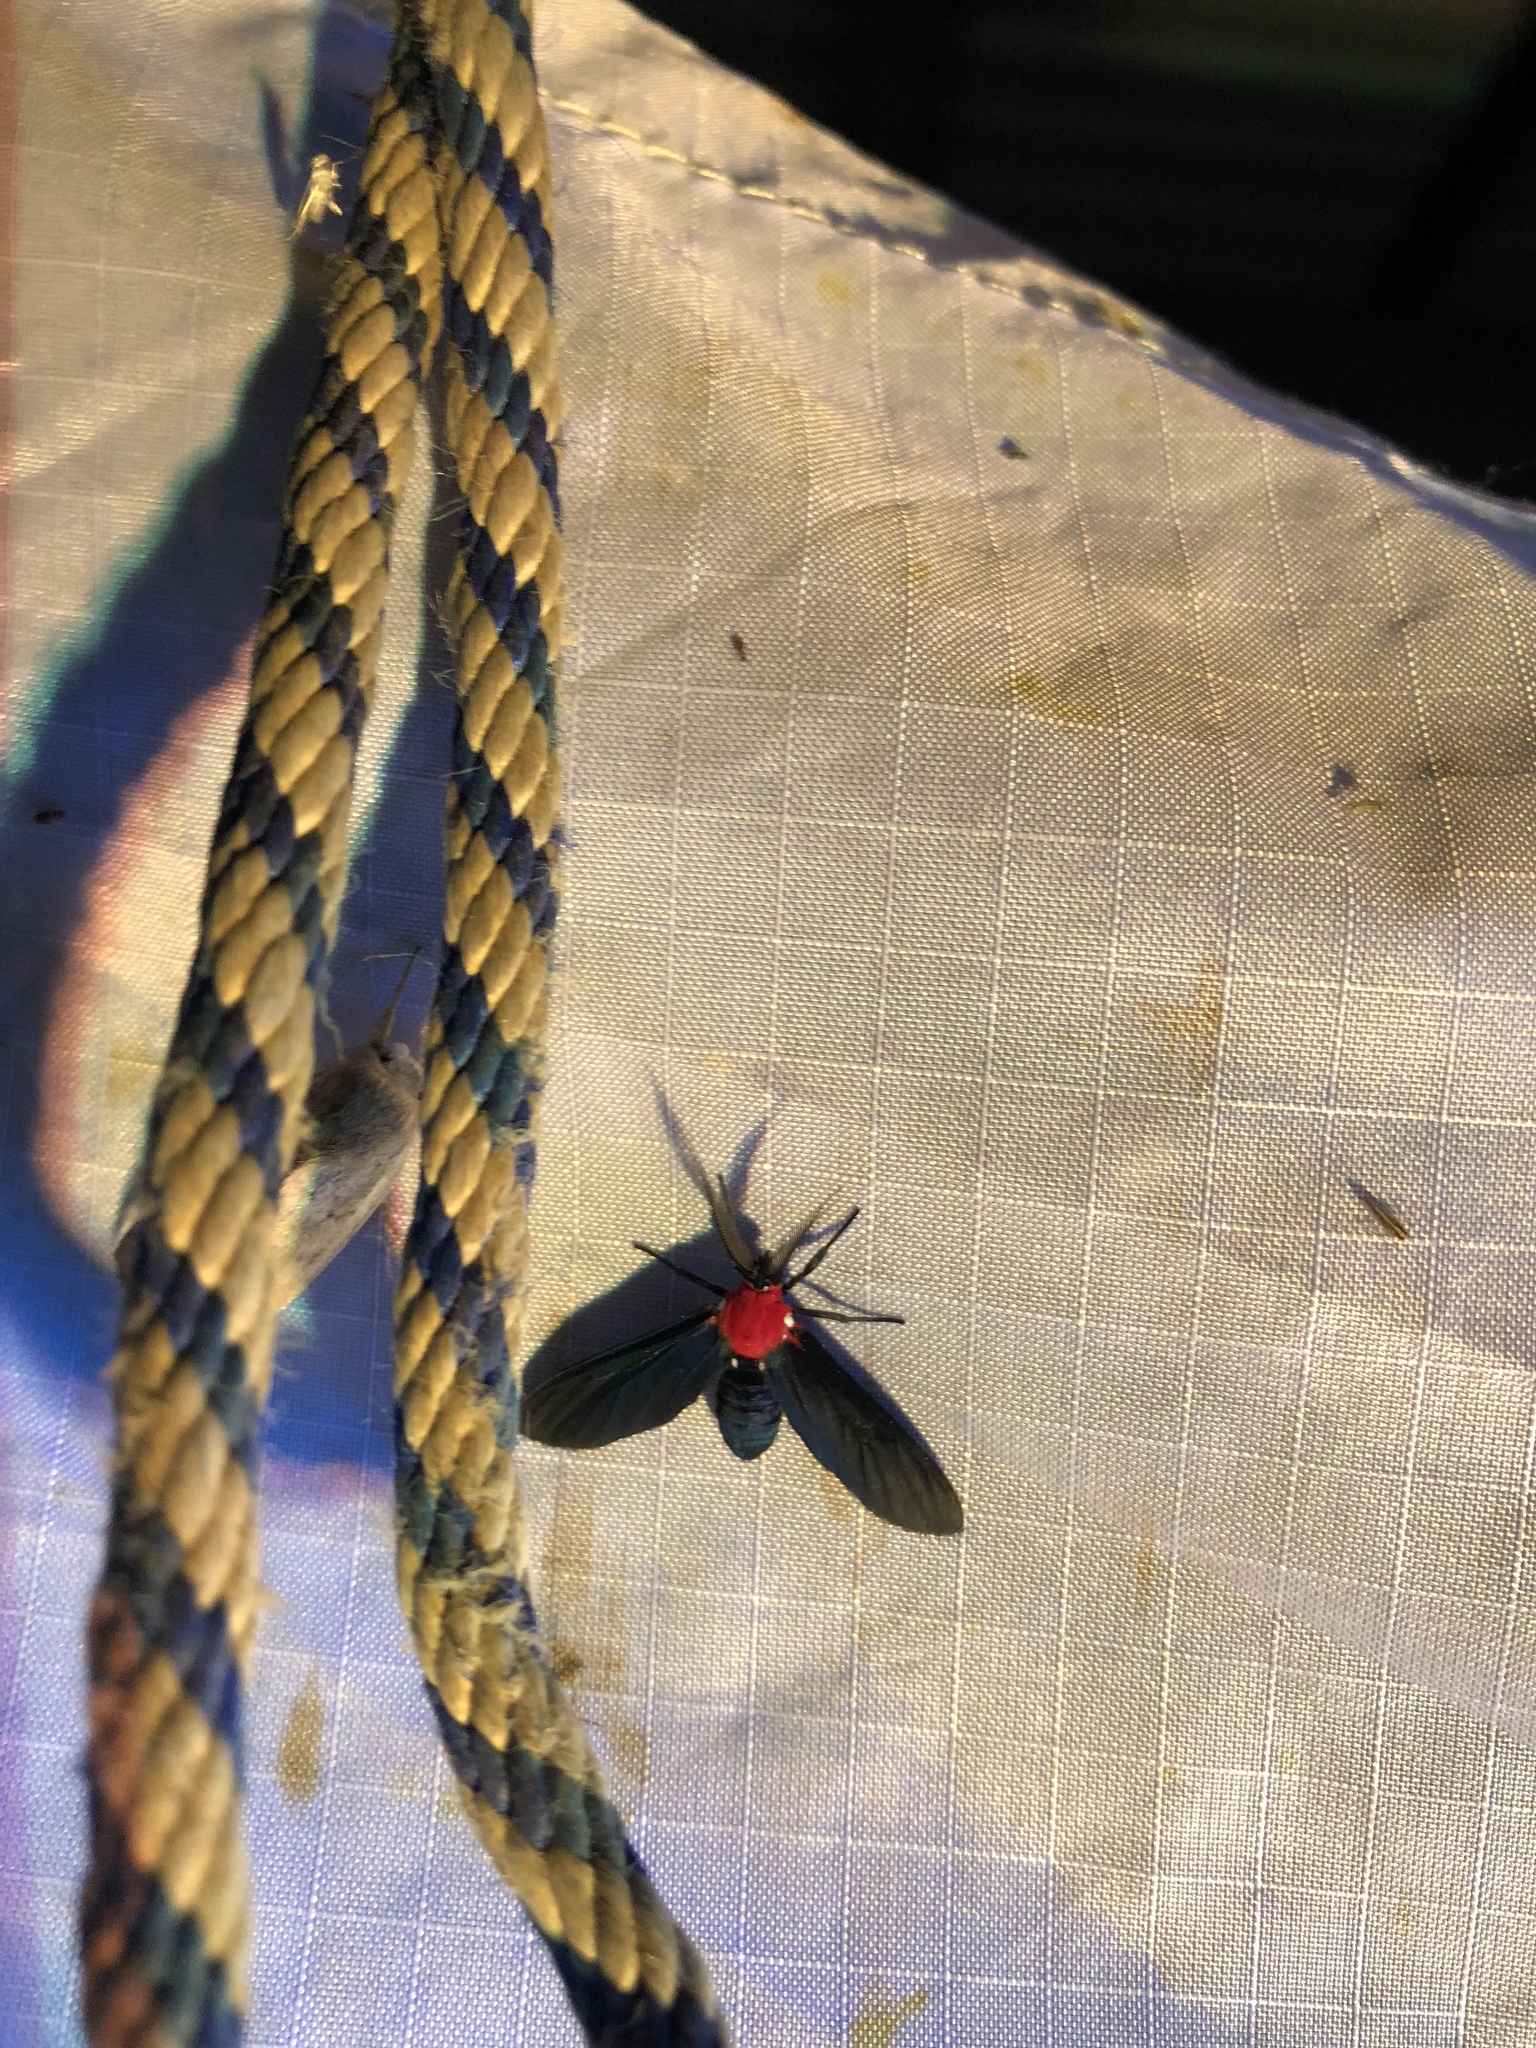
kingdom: Animalia
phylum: Arthropoda
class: Insecta
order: Lepidoptera
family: Erebidae
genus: Psoloptera
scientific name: Psoloptera thoracica
